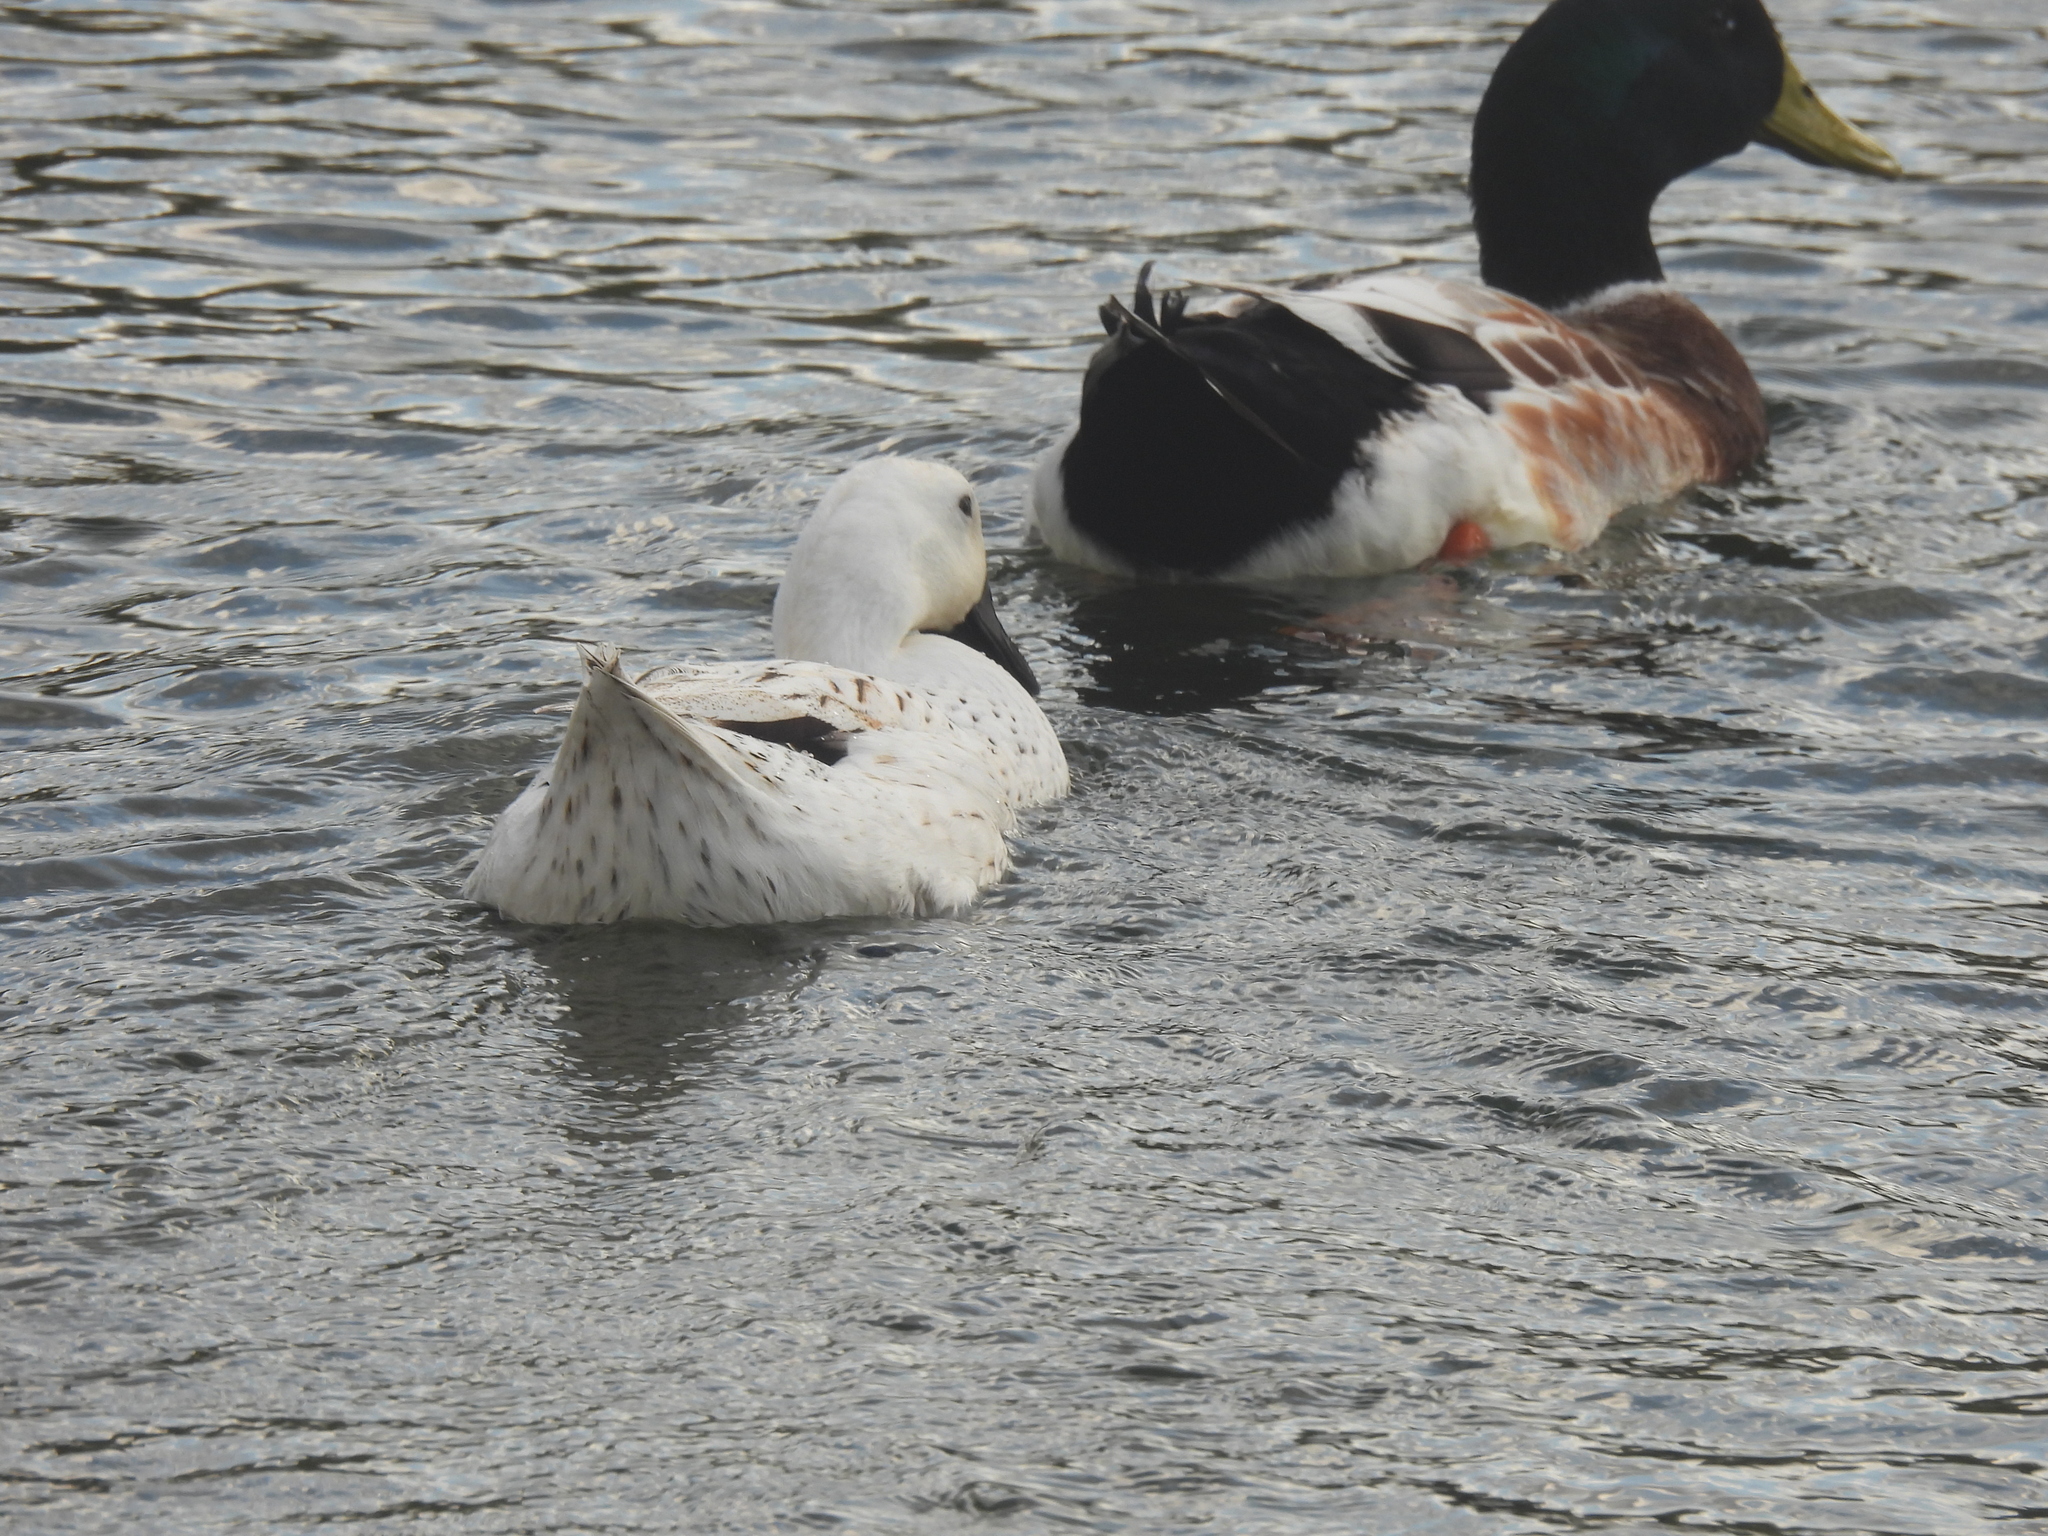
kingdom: Animalia
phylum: Chordata
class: Aves
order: Anseriformes
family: Anatidae
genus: Anas
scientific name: Anas platyrhynchos
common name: Mallard
